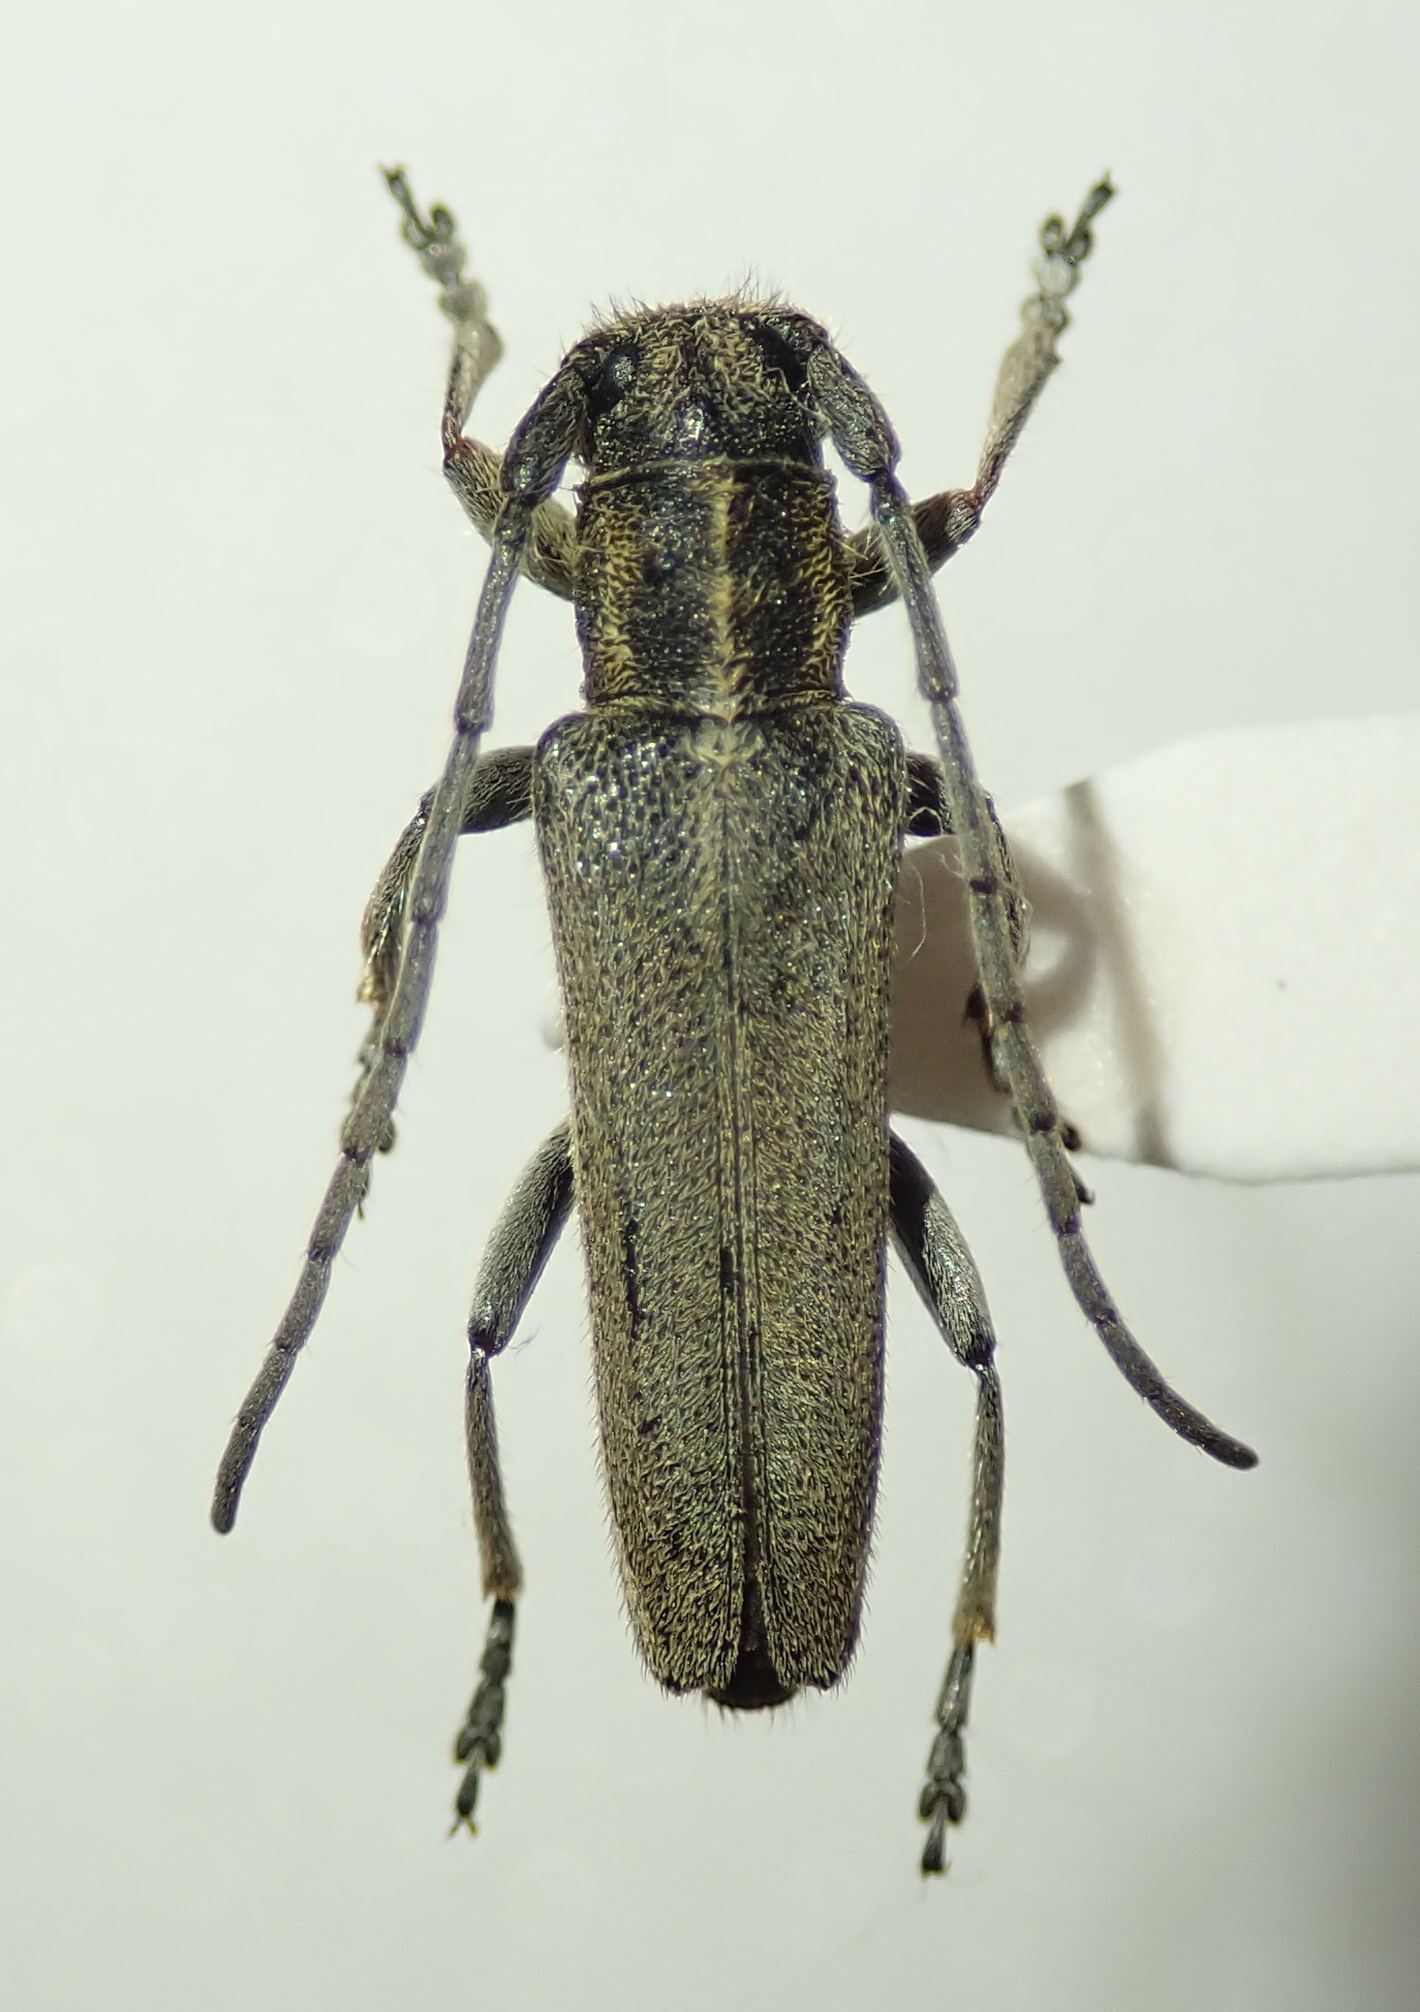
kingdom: Animalia
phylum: Arthropoda
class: Insecta
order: Coleoptera
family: Cerambycidae
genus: Phytoecia
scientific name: Phytoecia nigricornis
